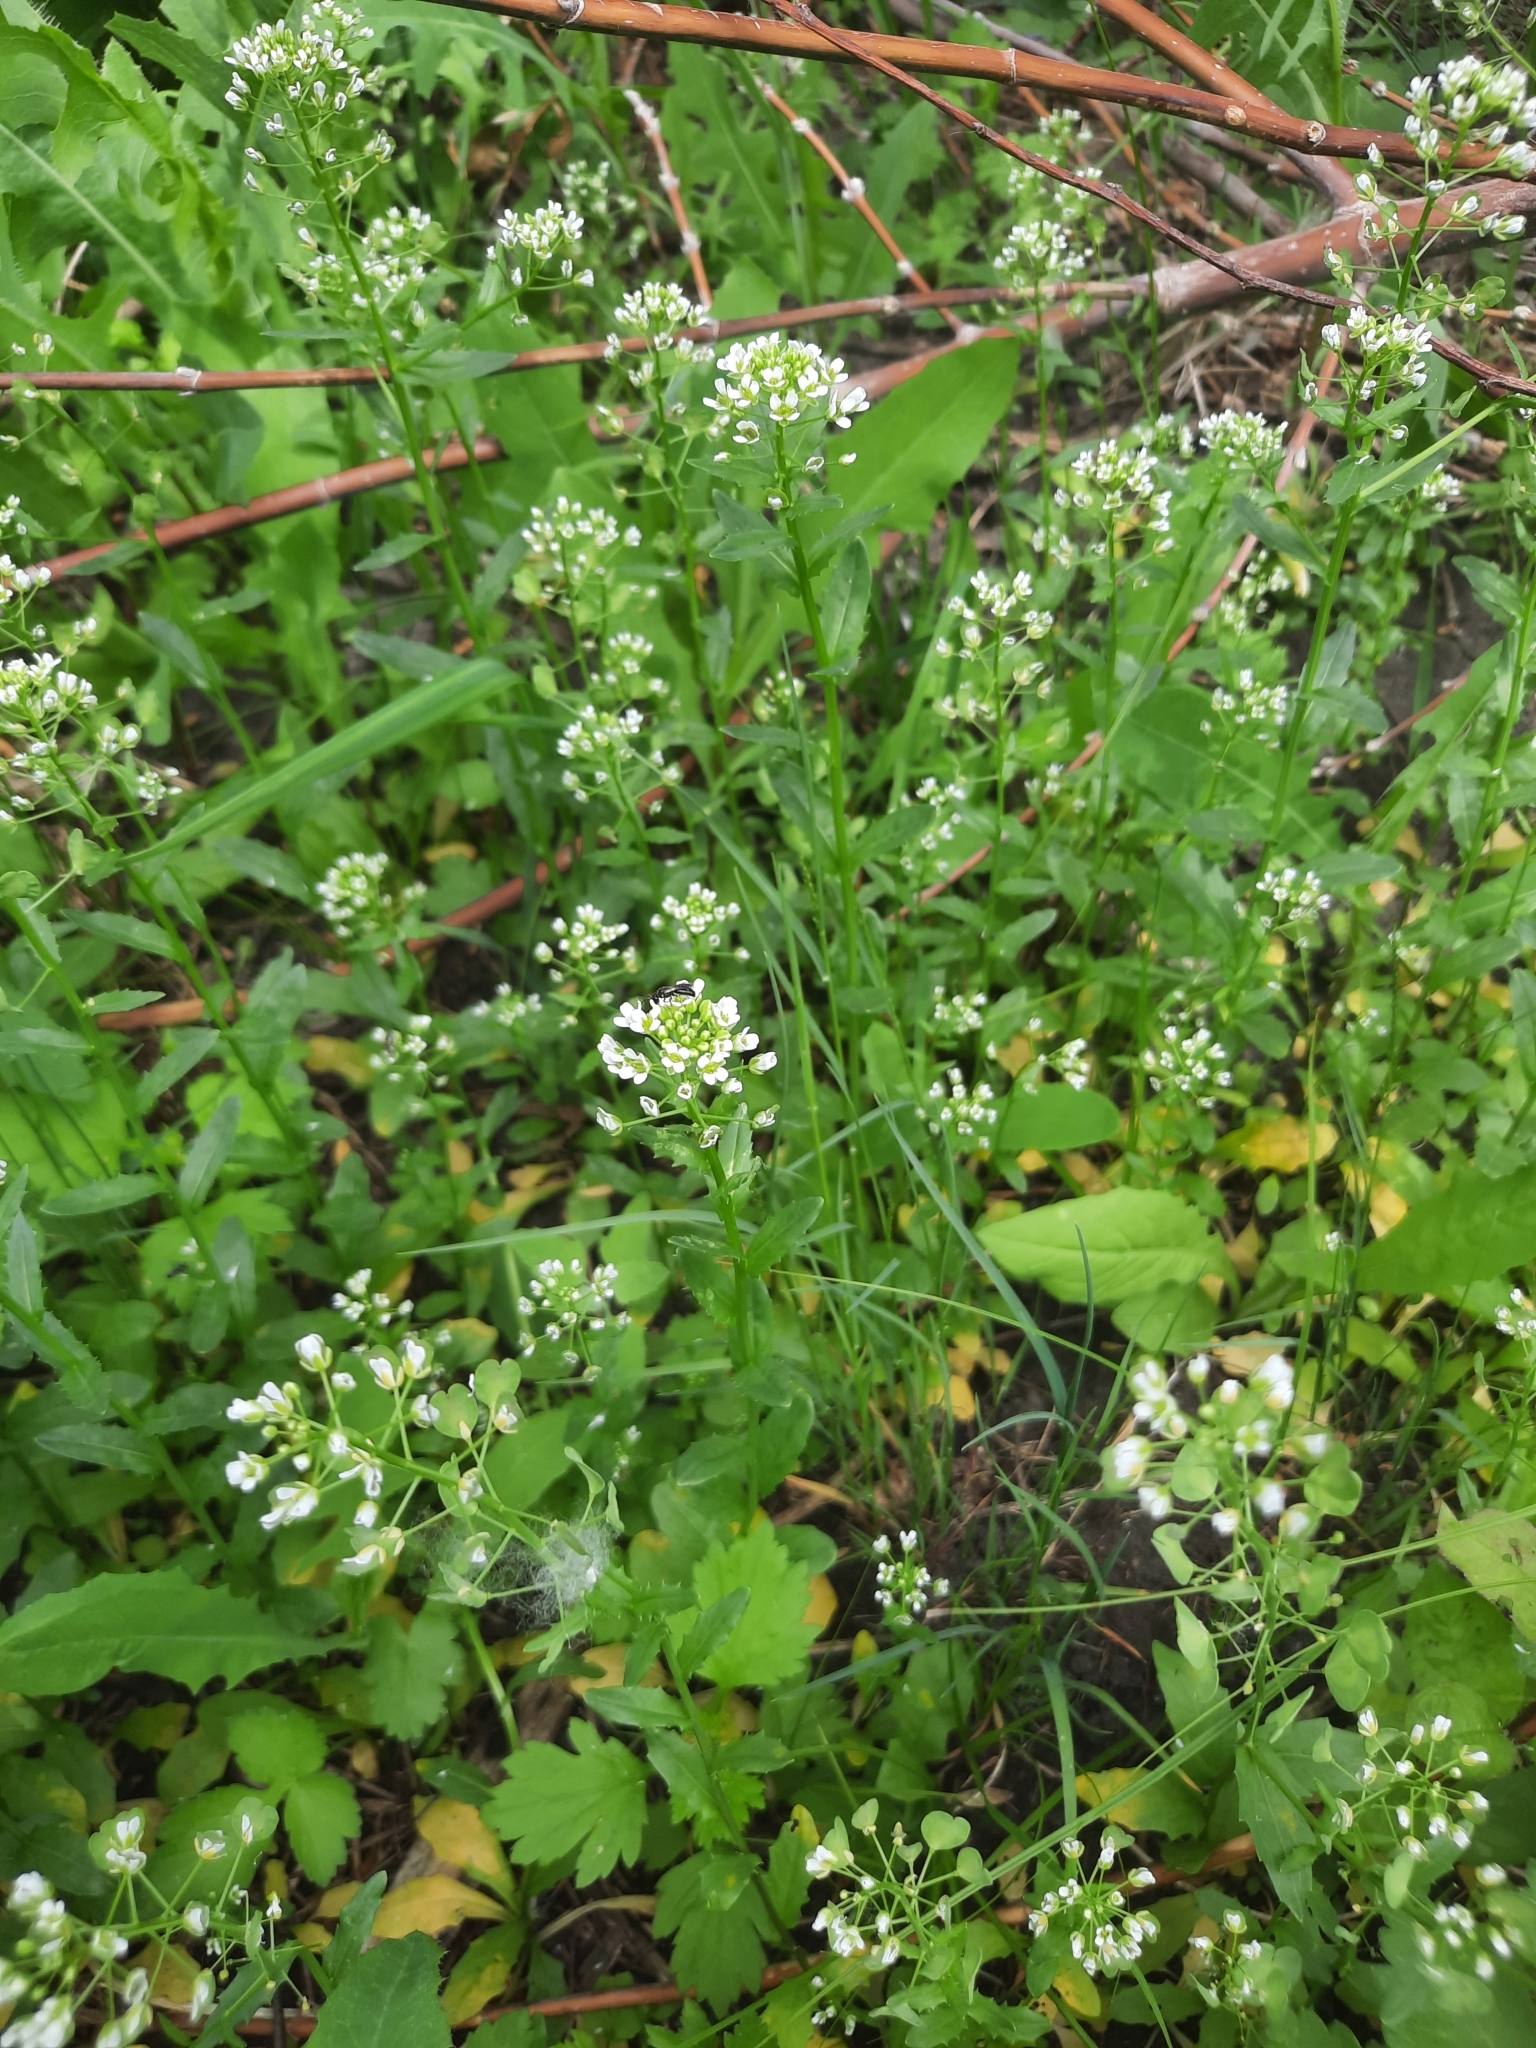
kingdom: Plantae
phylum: Tracheophyta
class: Magnoliopsida
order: Brassicales
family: Brassicaceae
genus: Thlaspi
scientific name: Thlaspi arvense
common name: Field pennycress
